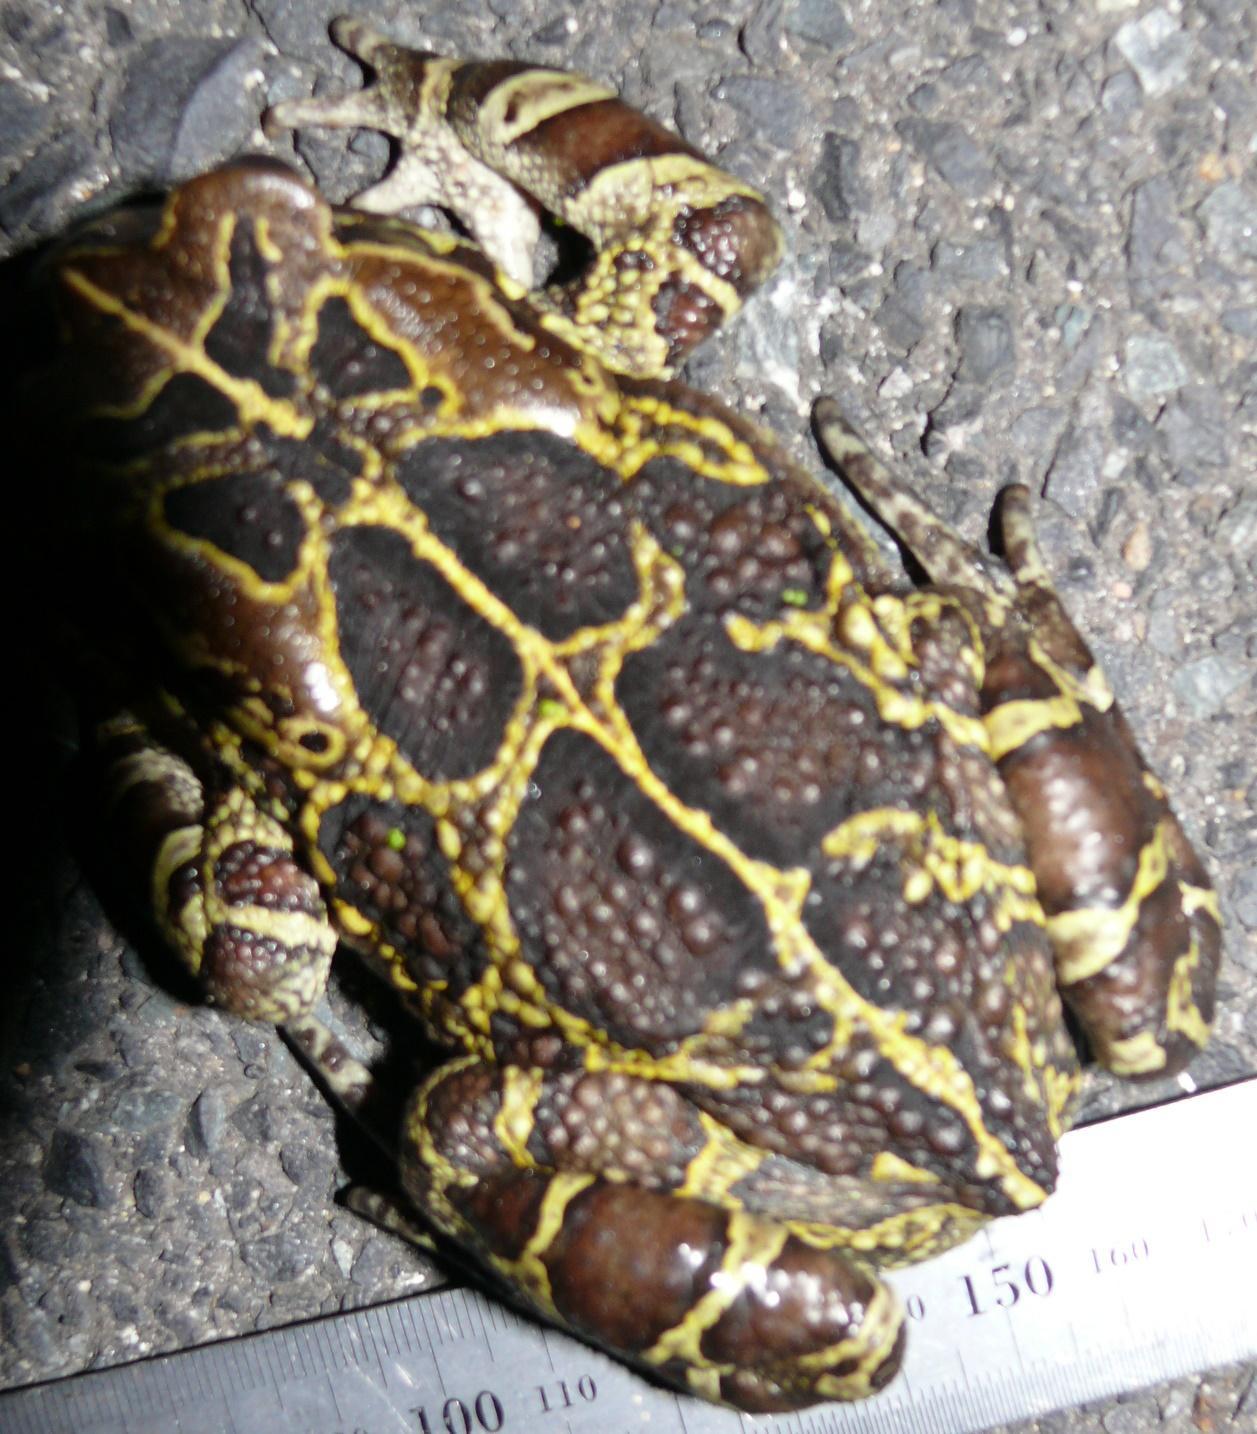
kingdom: Animalia
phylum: Chordata
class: Amphibia
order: Anura
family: Bufonidae
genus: Sclerophrys
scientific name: Sclerophrys pantherina
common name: Panther toad
